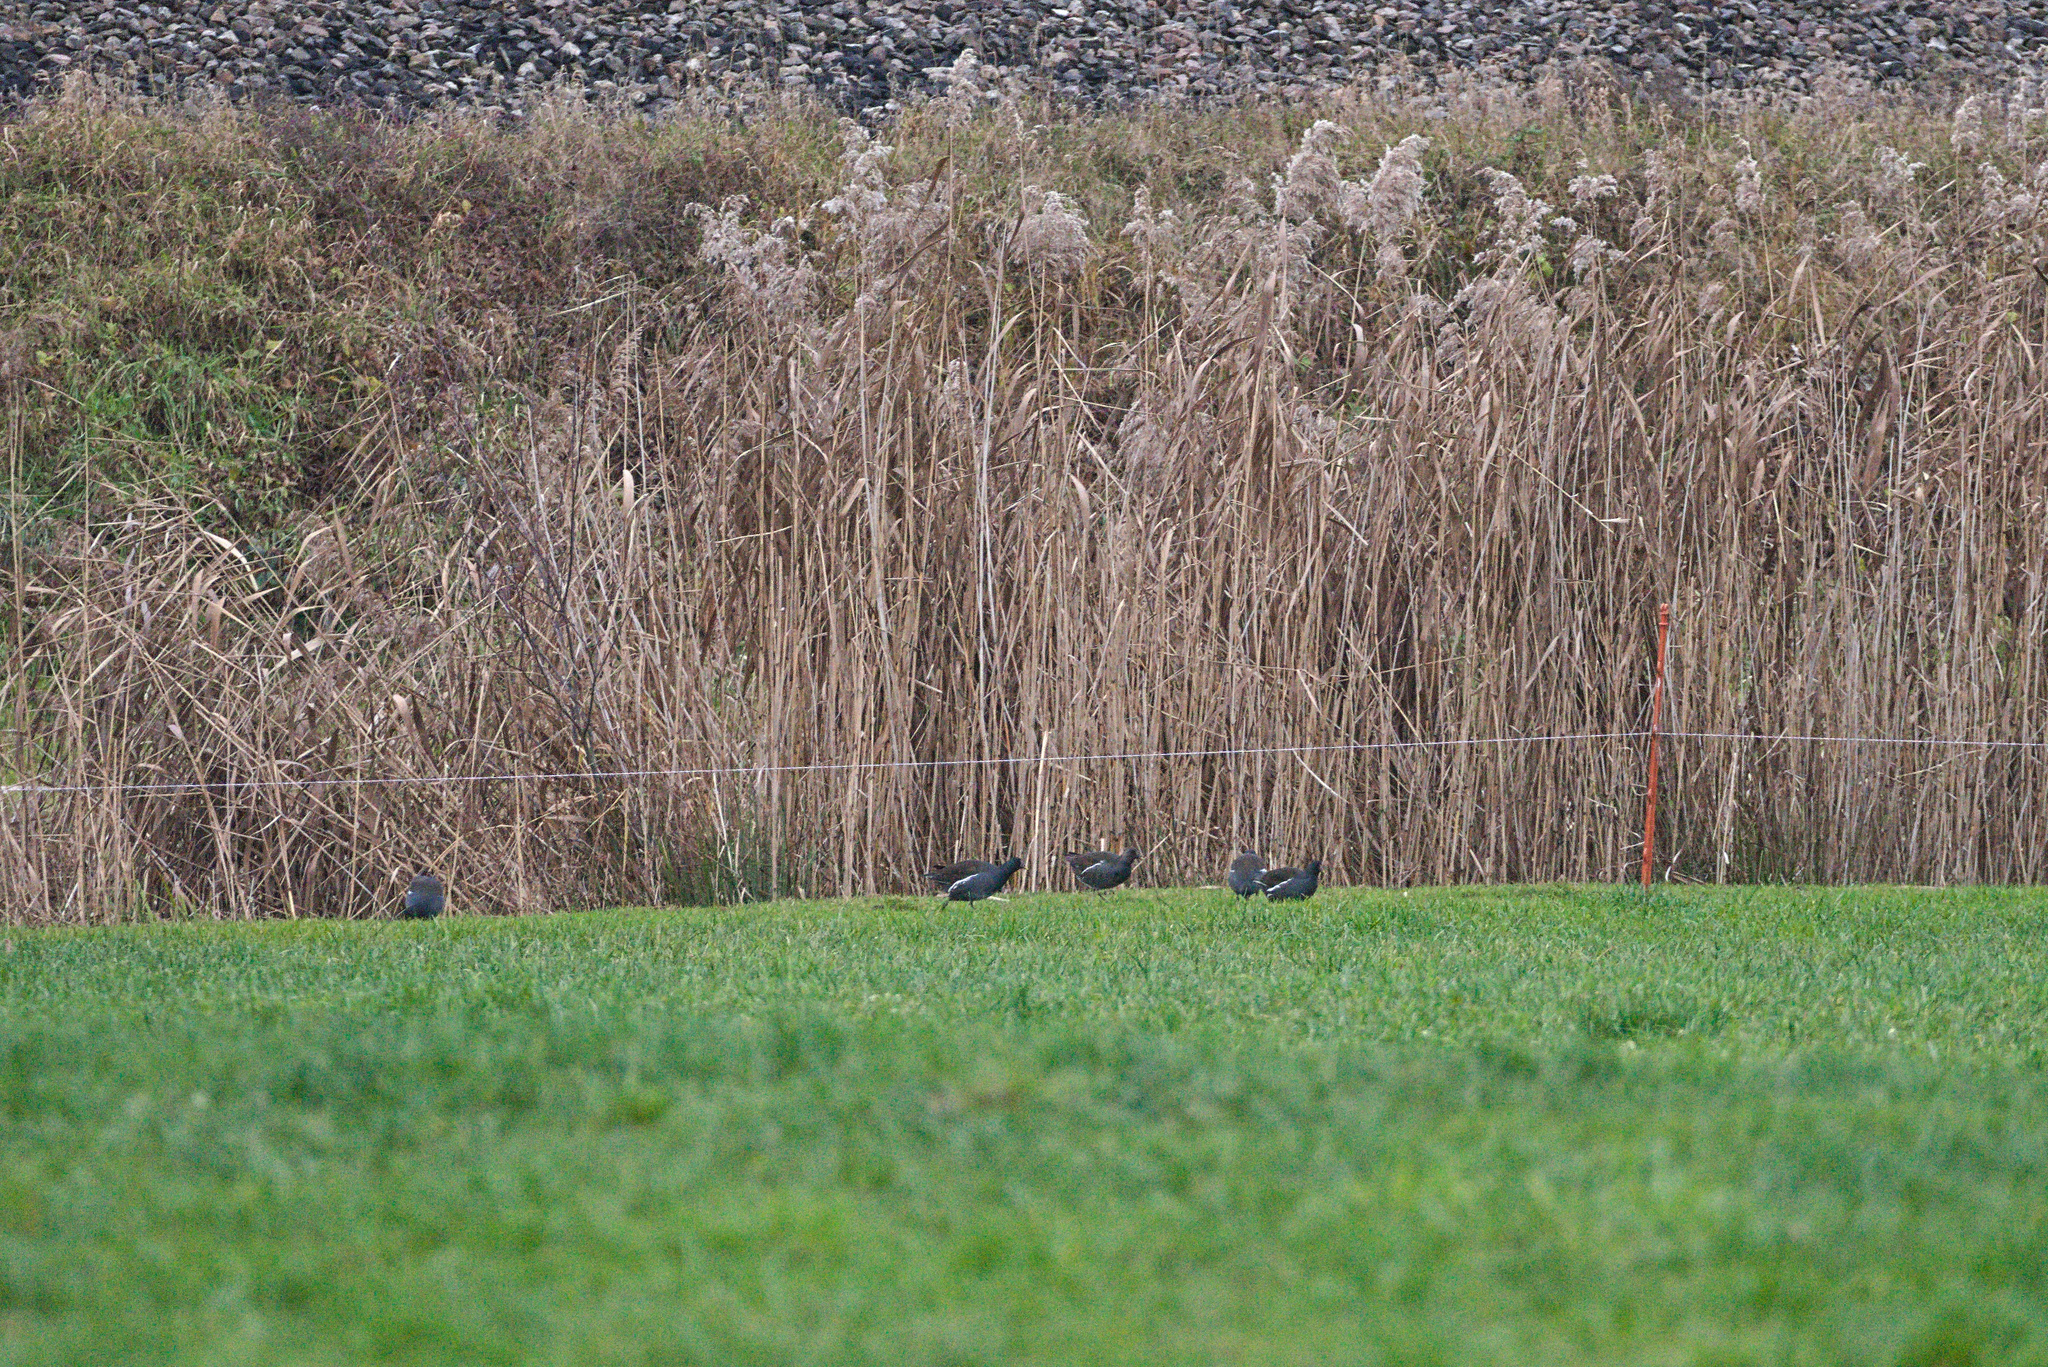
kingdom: Animalia
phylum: Chordata
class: Aves
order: Gruiformes
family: Rallidae
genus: Gallinula
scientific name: Gallinula chloropus
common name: Common moorhen
